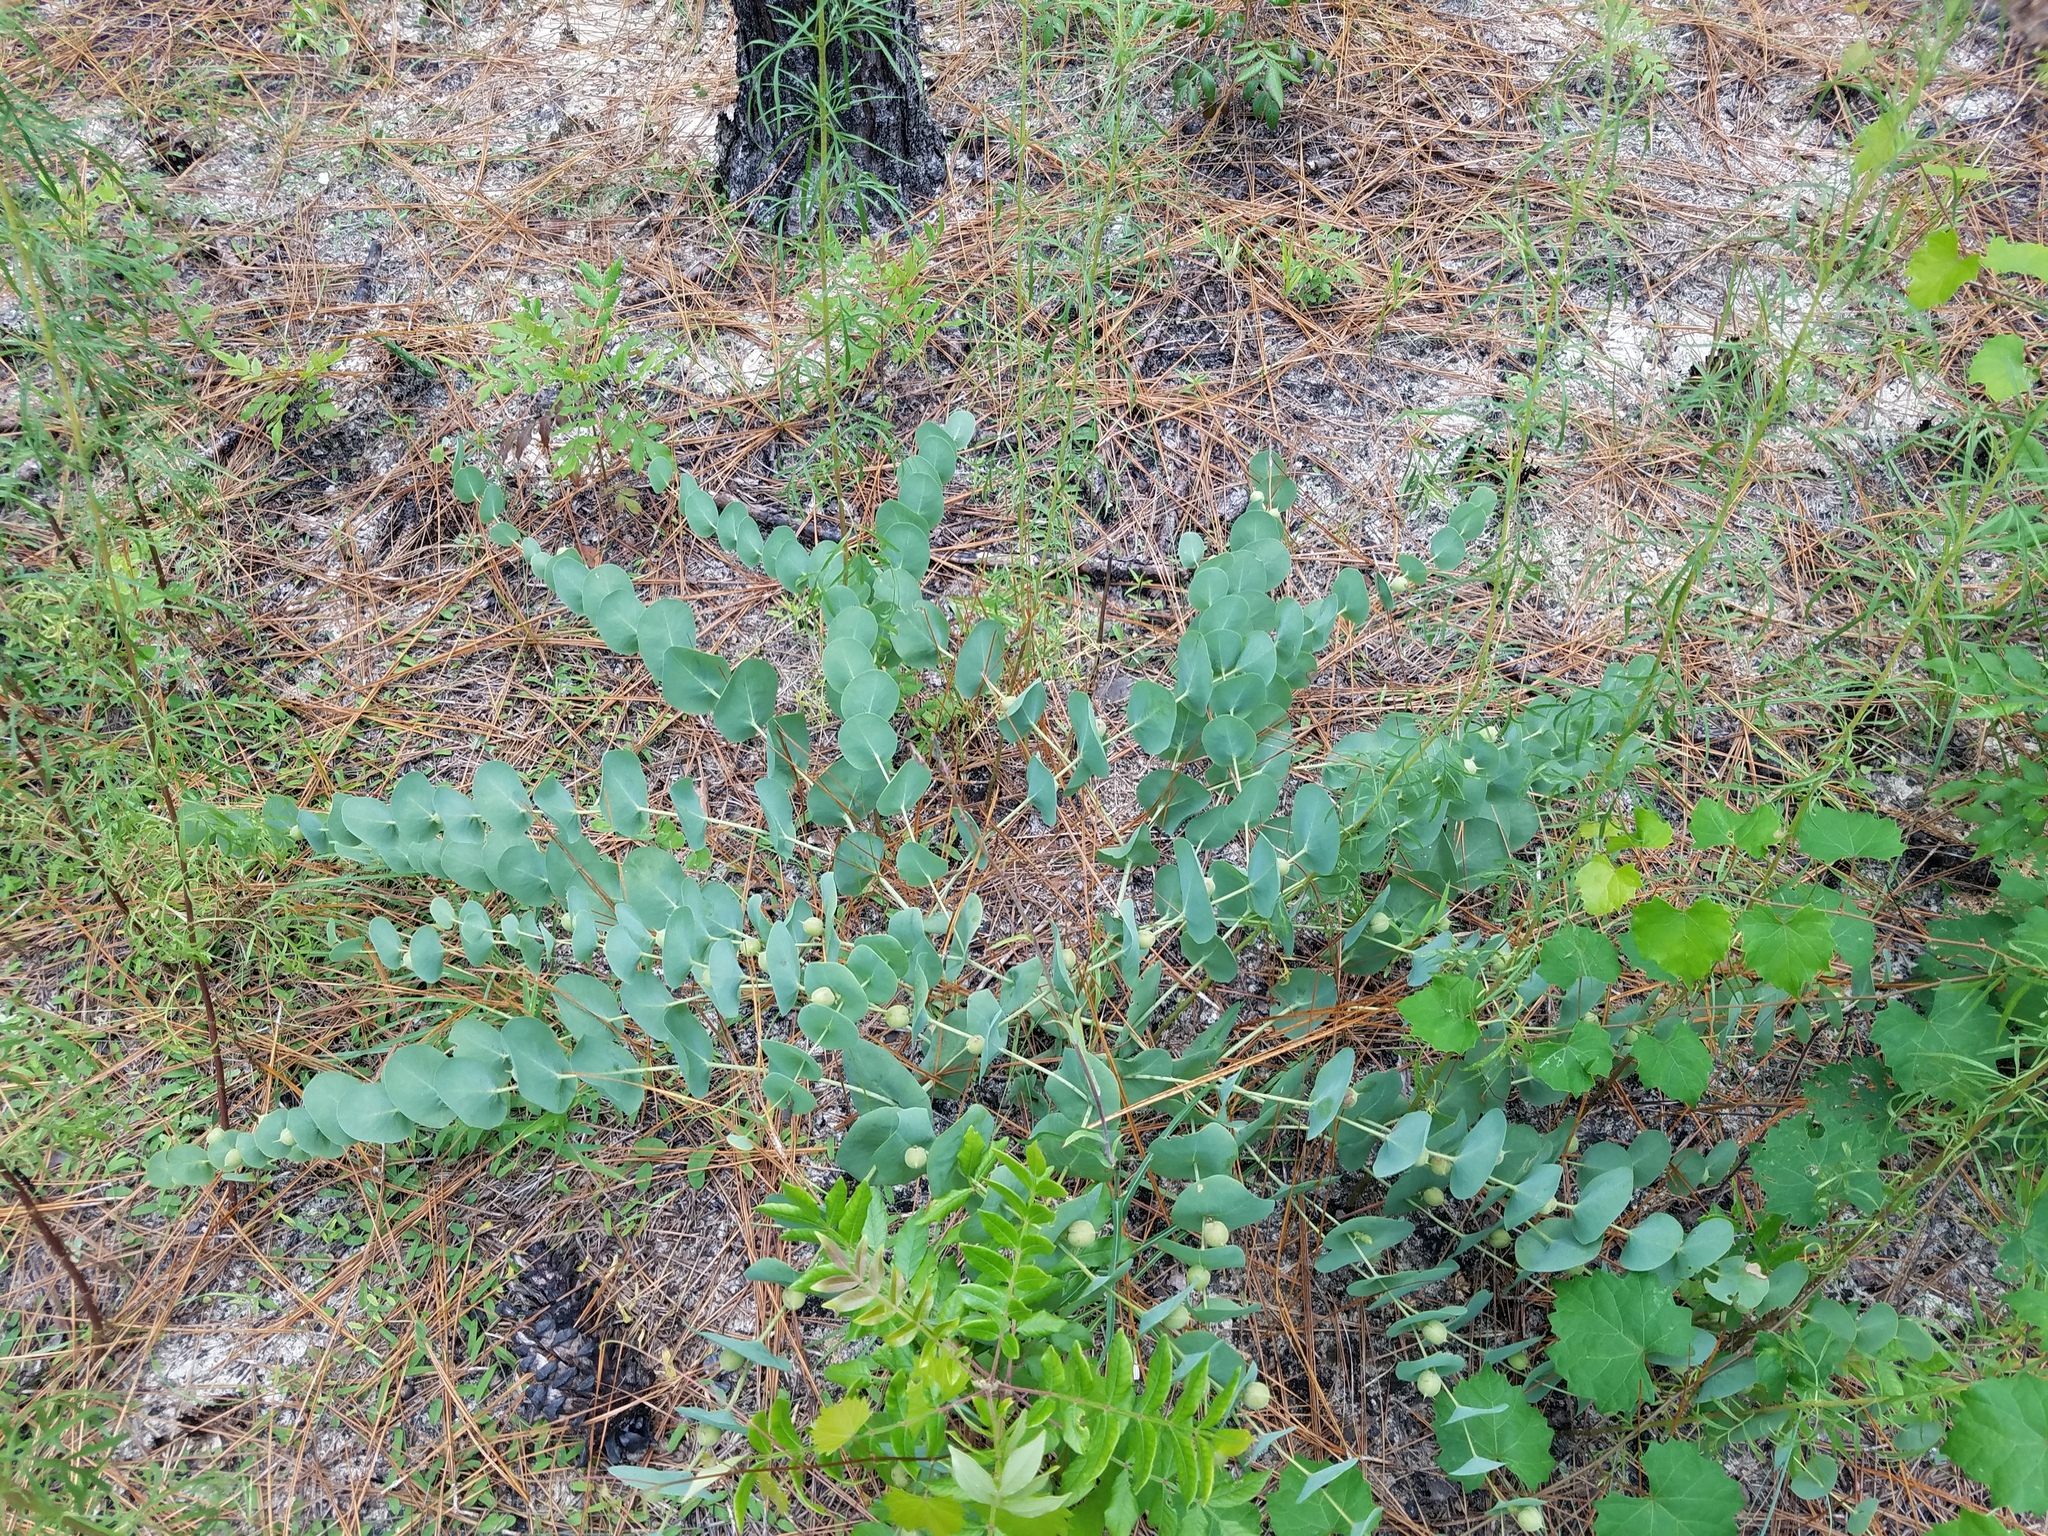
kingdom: Plantae
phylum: Tracheophyta
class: Magnoliopsida
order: Fabales
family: Fabaceae
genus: Baptisia
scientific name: Baptisia perfoliata
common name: Catbells
